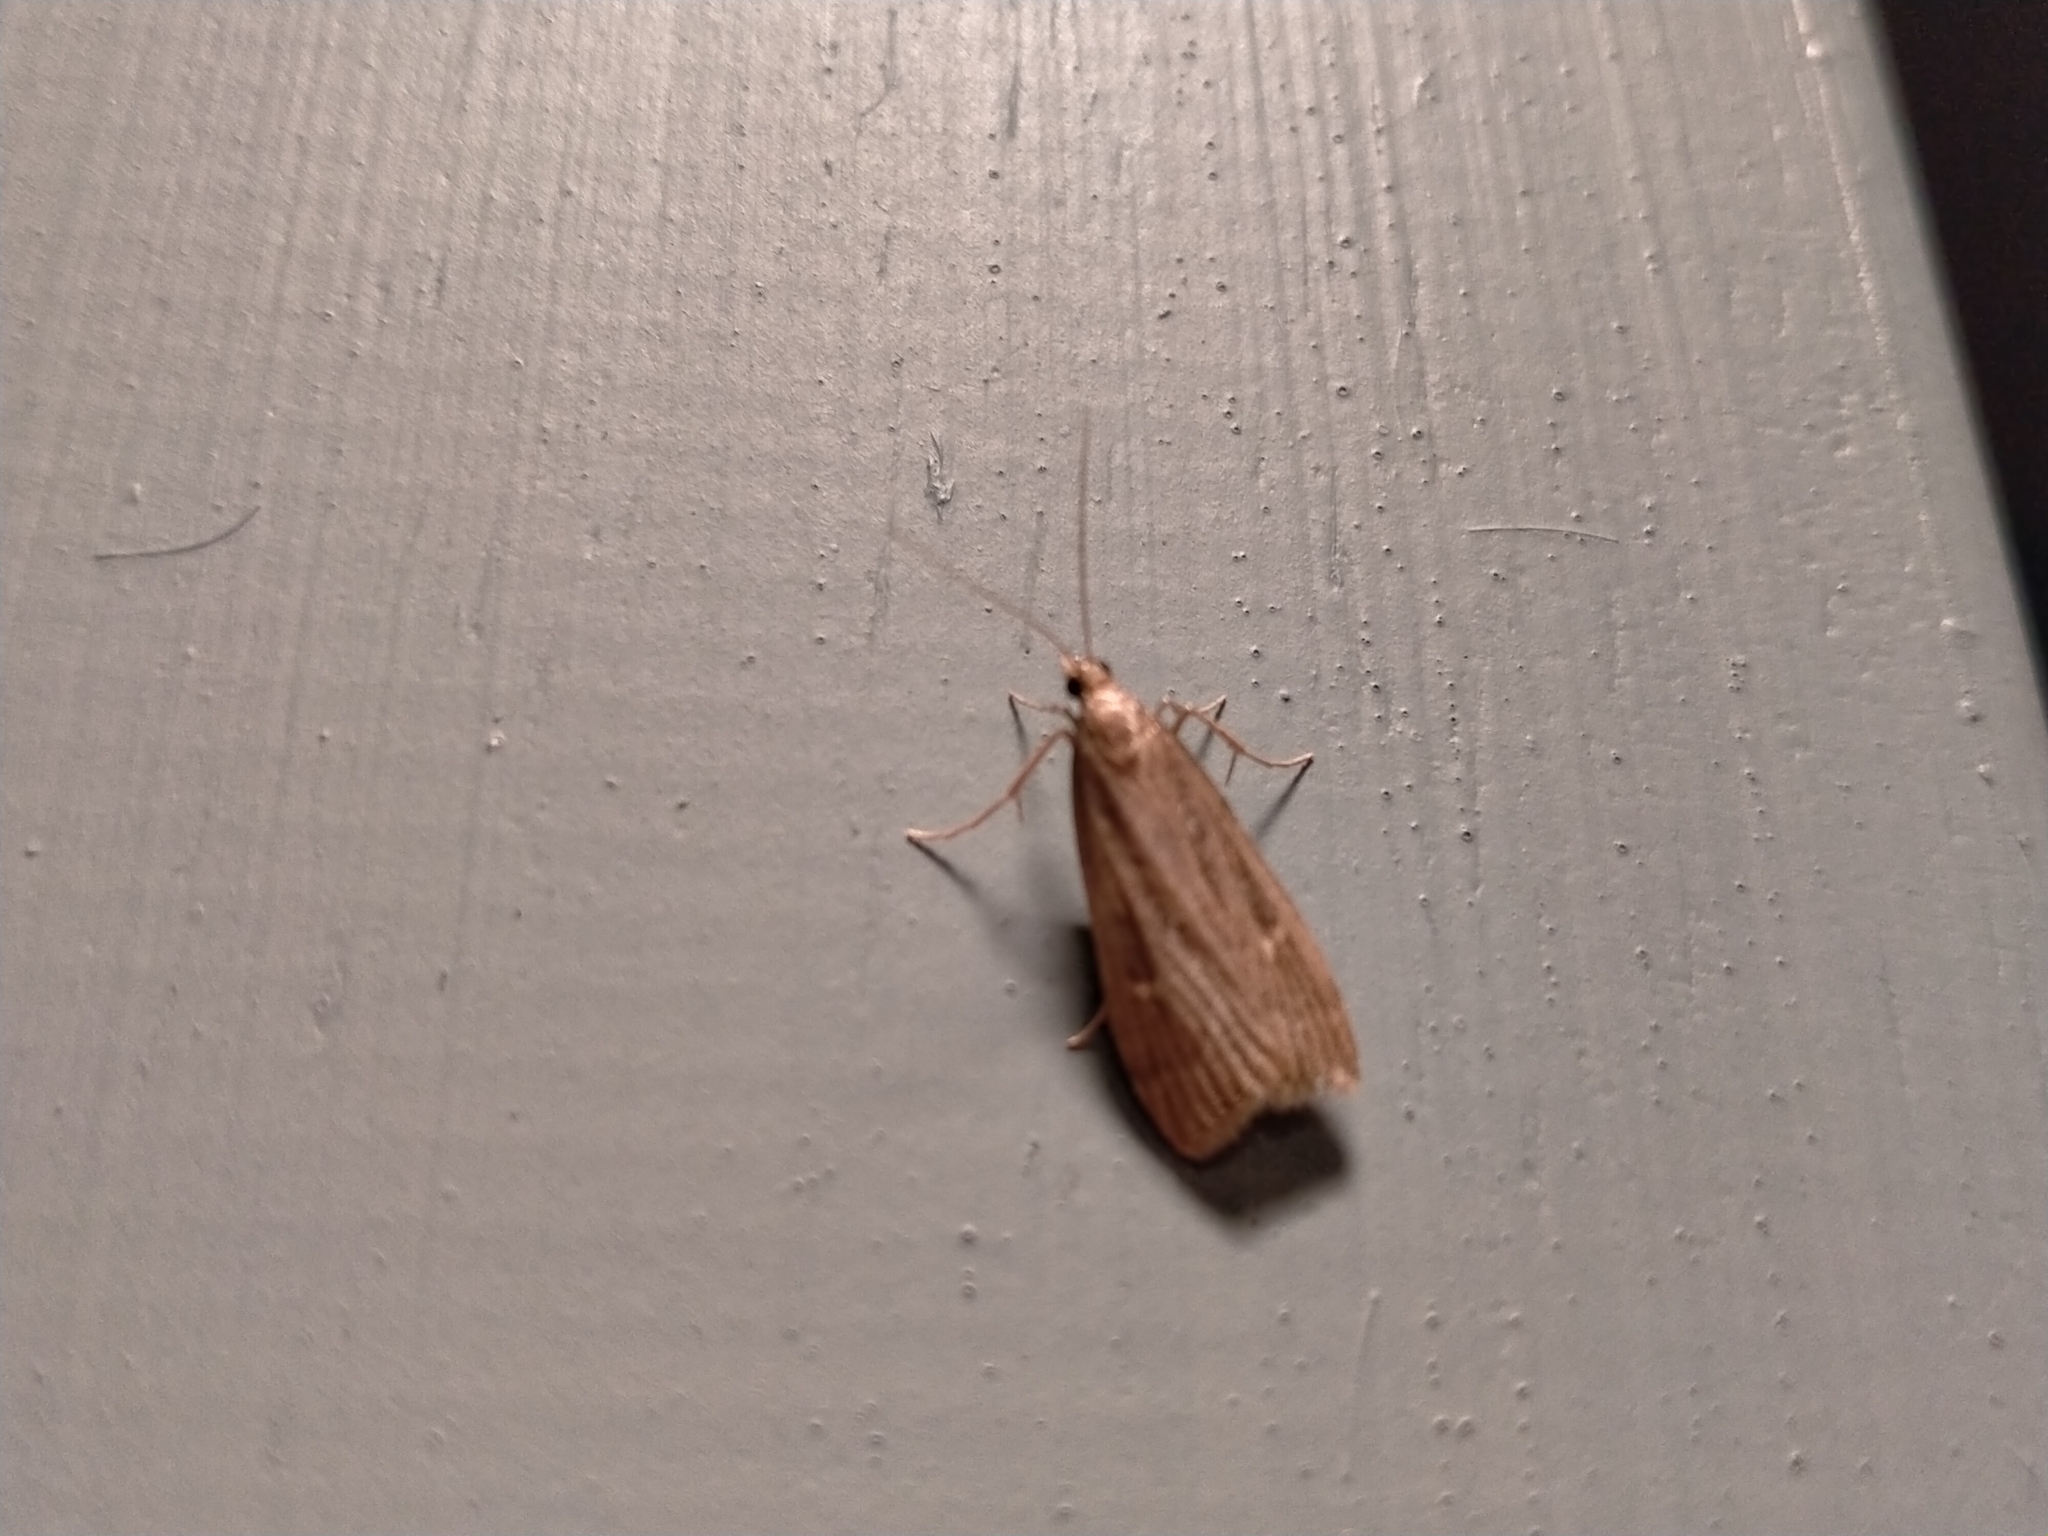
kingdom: Animalia
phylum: Arthropoda
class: Insecta
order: Lepidoptera
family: Crambidae
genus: Eudonia
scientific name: Eudonia octophora
